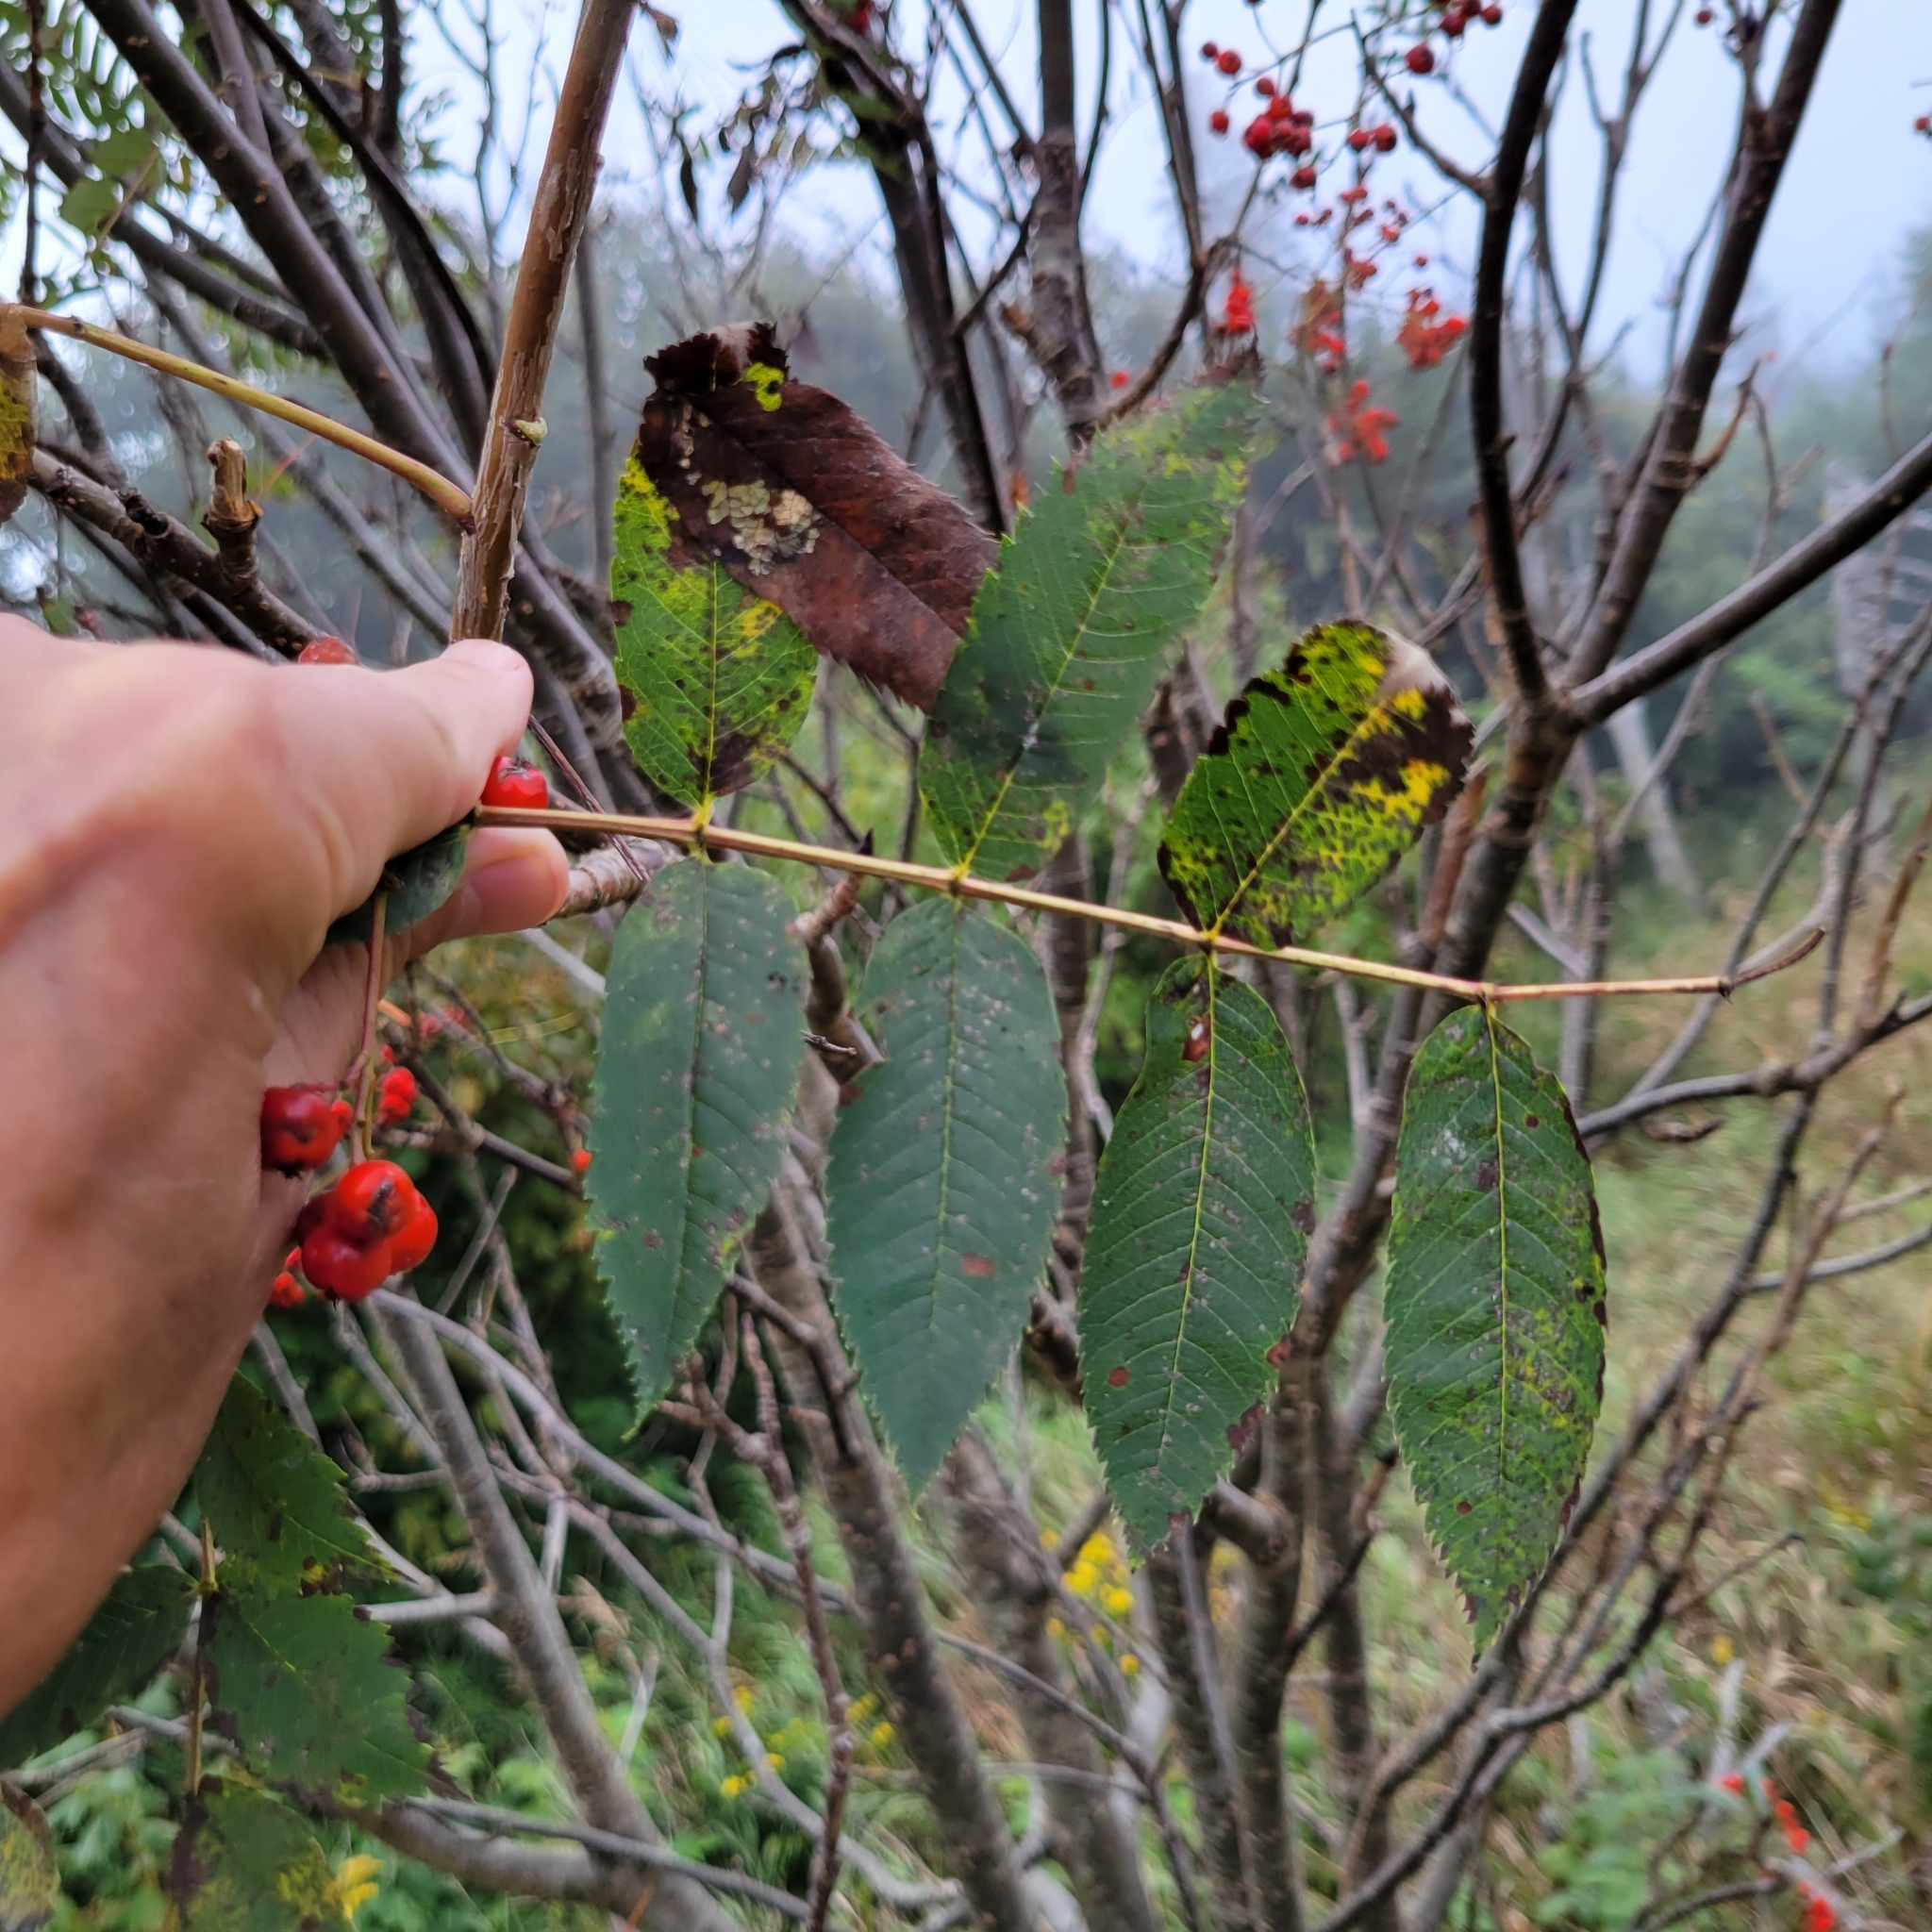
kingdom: Plantae
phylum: Tracheophyta
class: Magnoliopsida
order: Rosales
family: Rosaceae
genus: Sorbus
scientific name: Sorbus americana
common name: American mountain-ash
